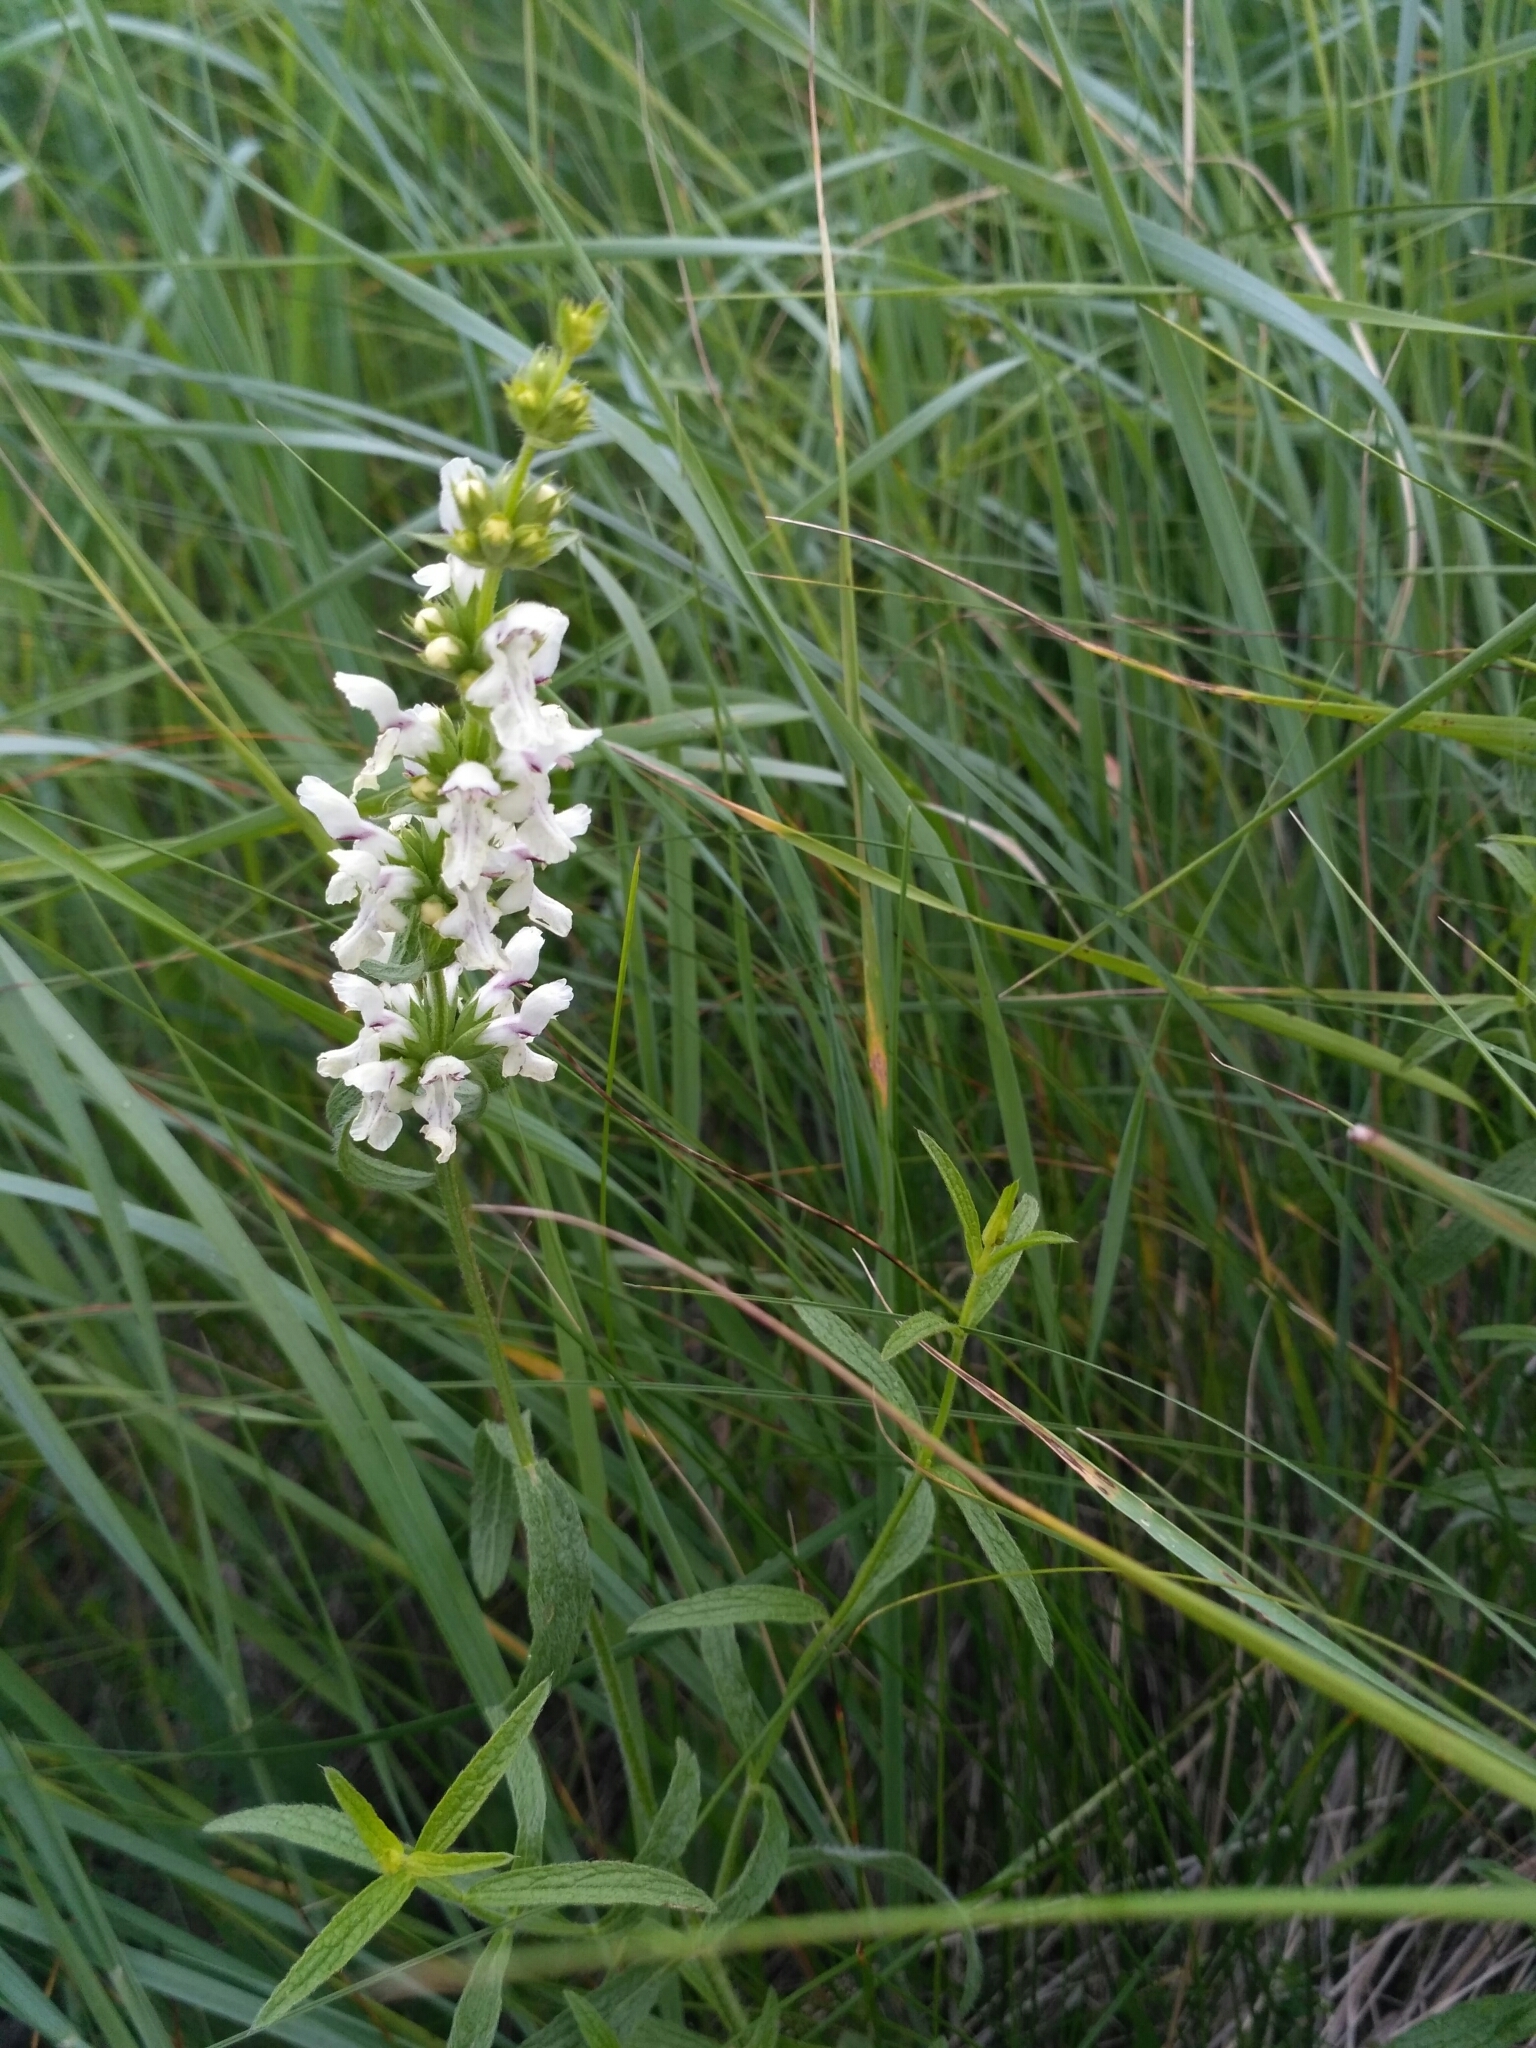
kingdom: Plantae
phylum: Tracheophyta
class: Magnoliopsida
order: Lamiales
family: Lamiaceae
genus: Stachys
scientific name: Stachys recta
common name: Perennial yellow-woundwort
